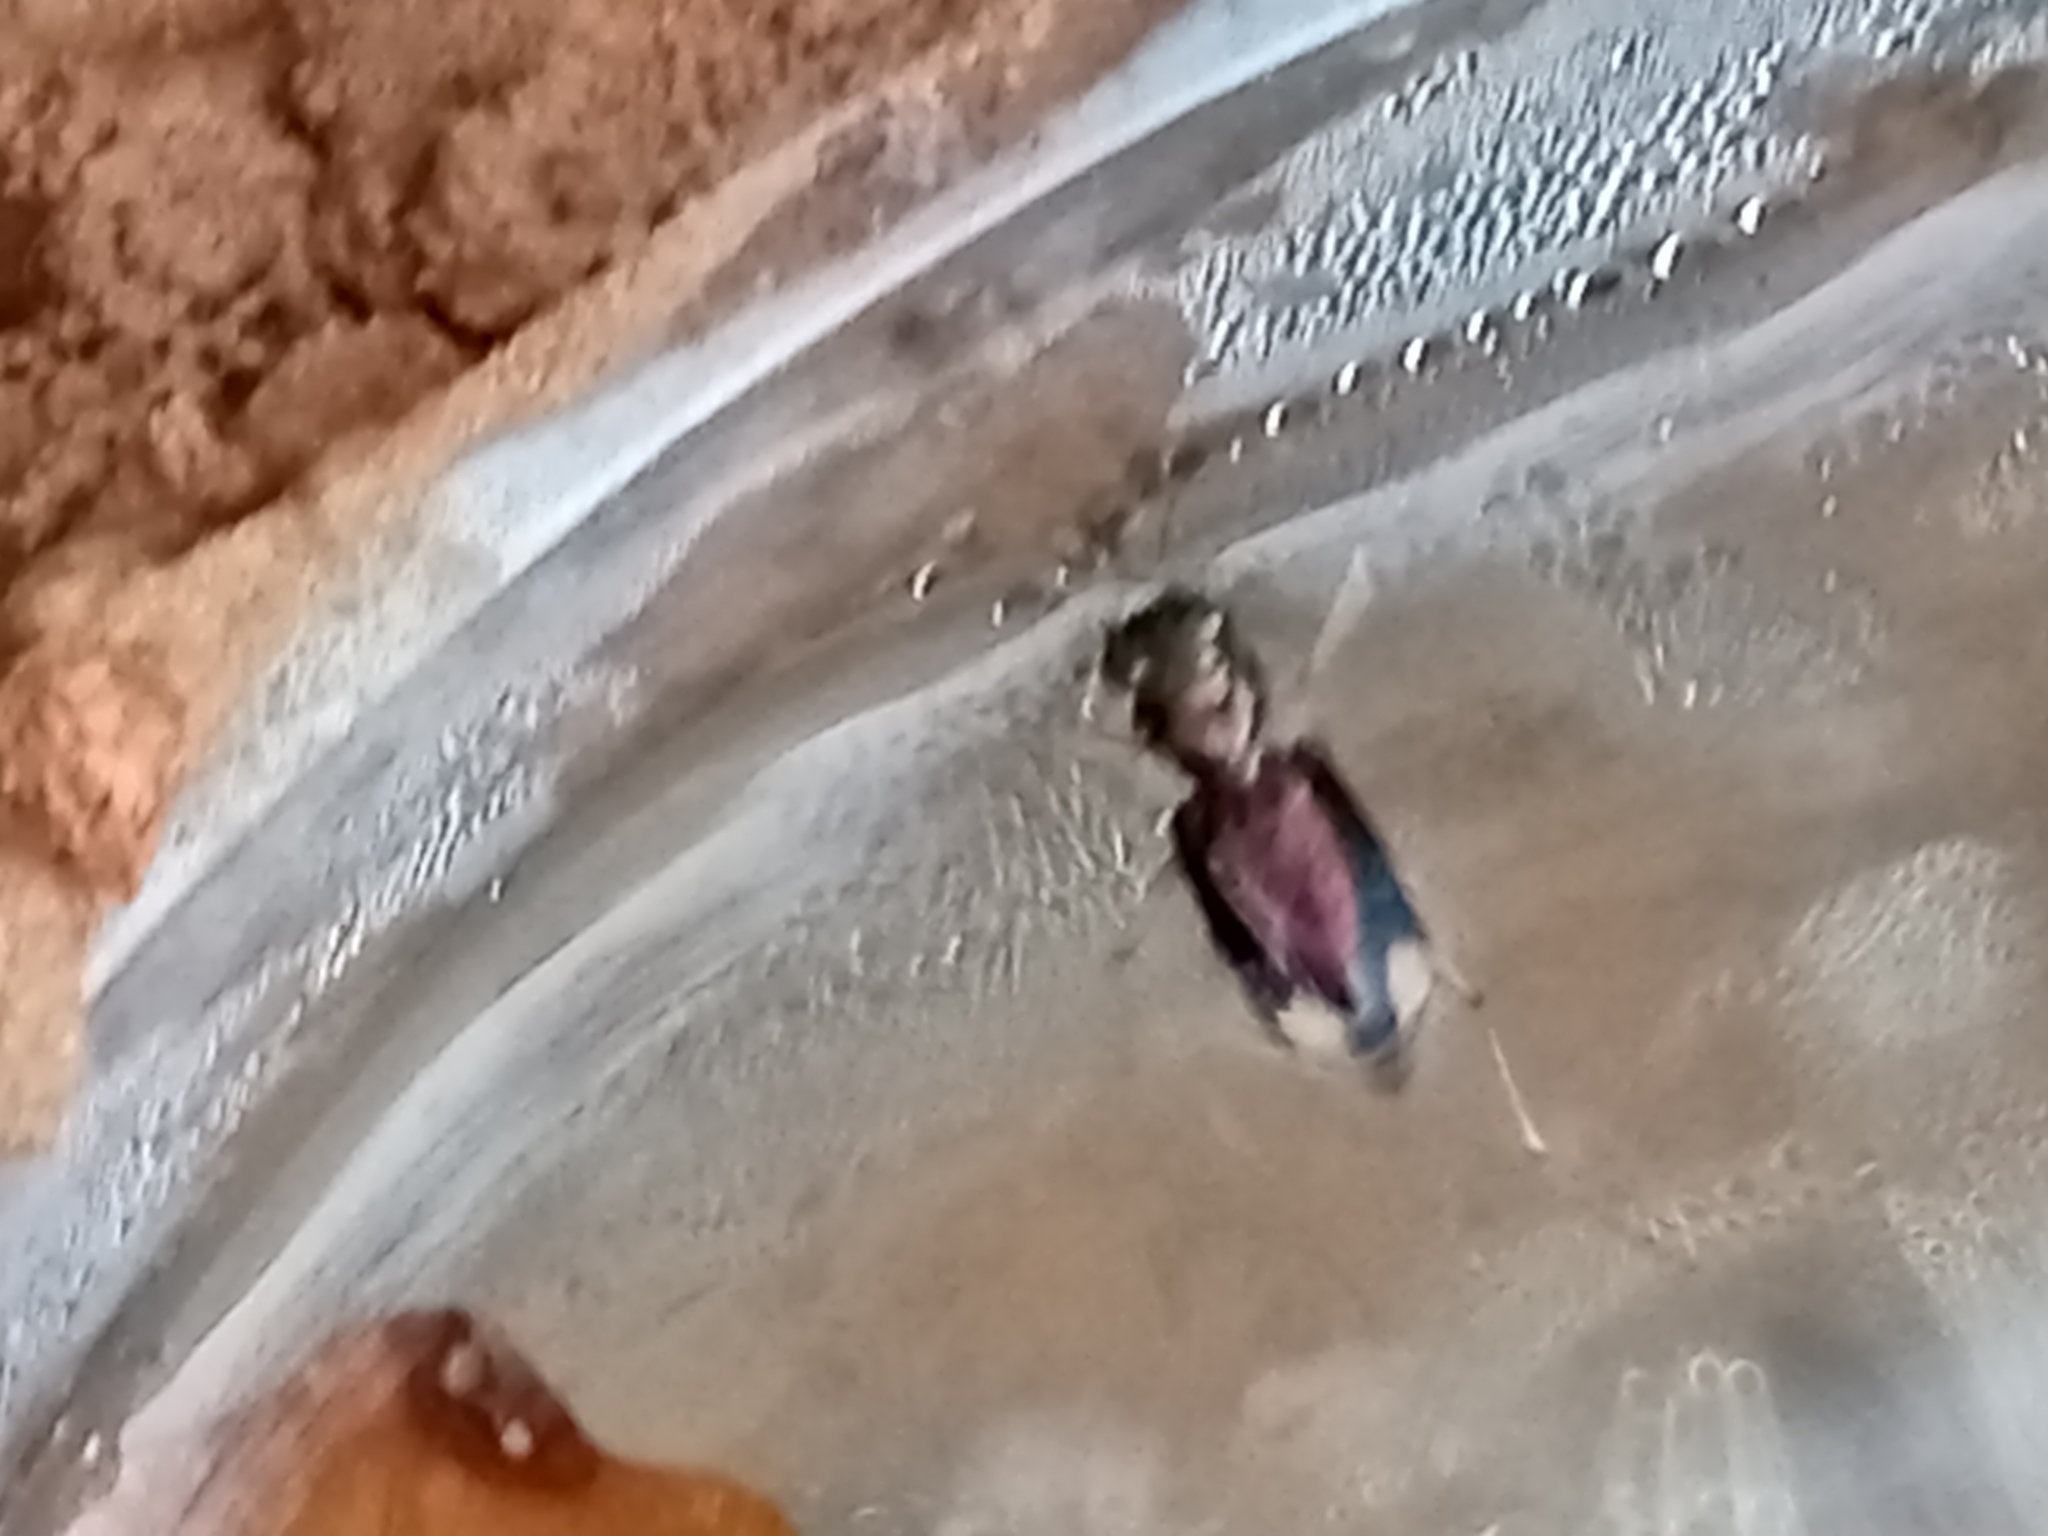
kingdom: Animalia
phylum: Arthropoda
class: Insecta
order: Coleoptera
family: Carabidae
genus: Tetracha
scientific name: Tetracha carolina
